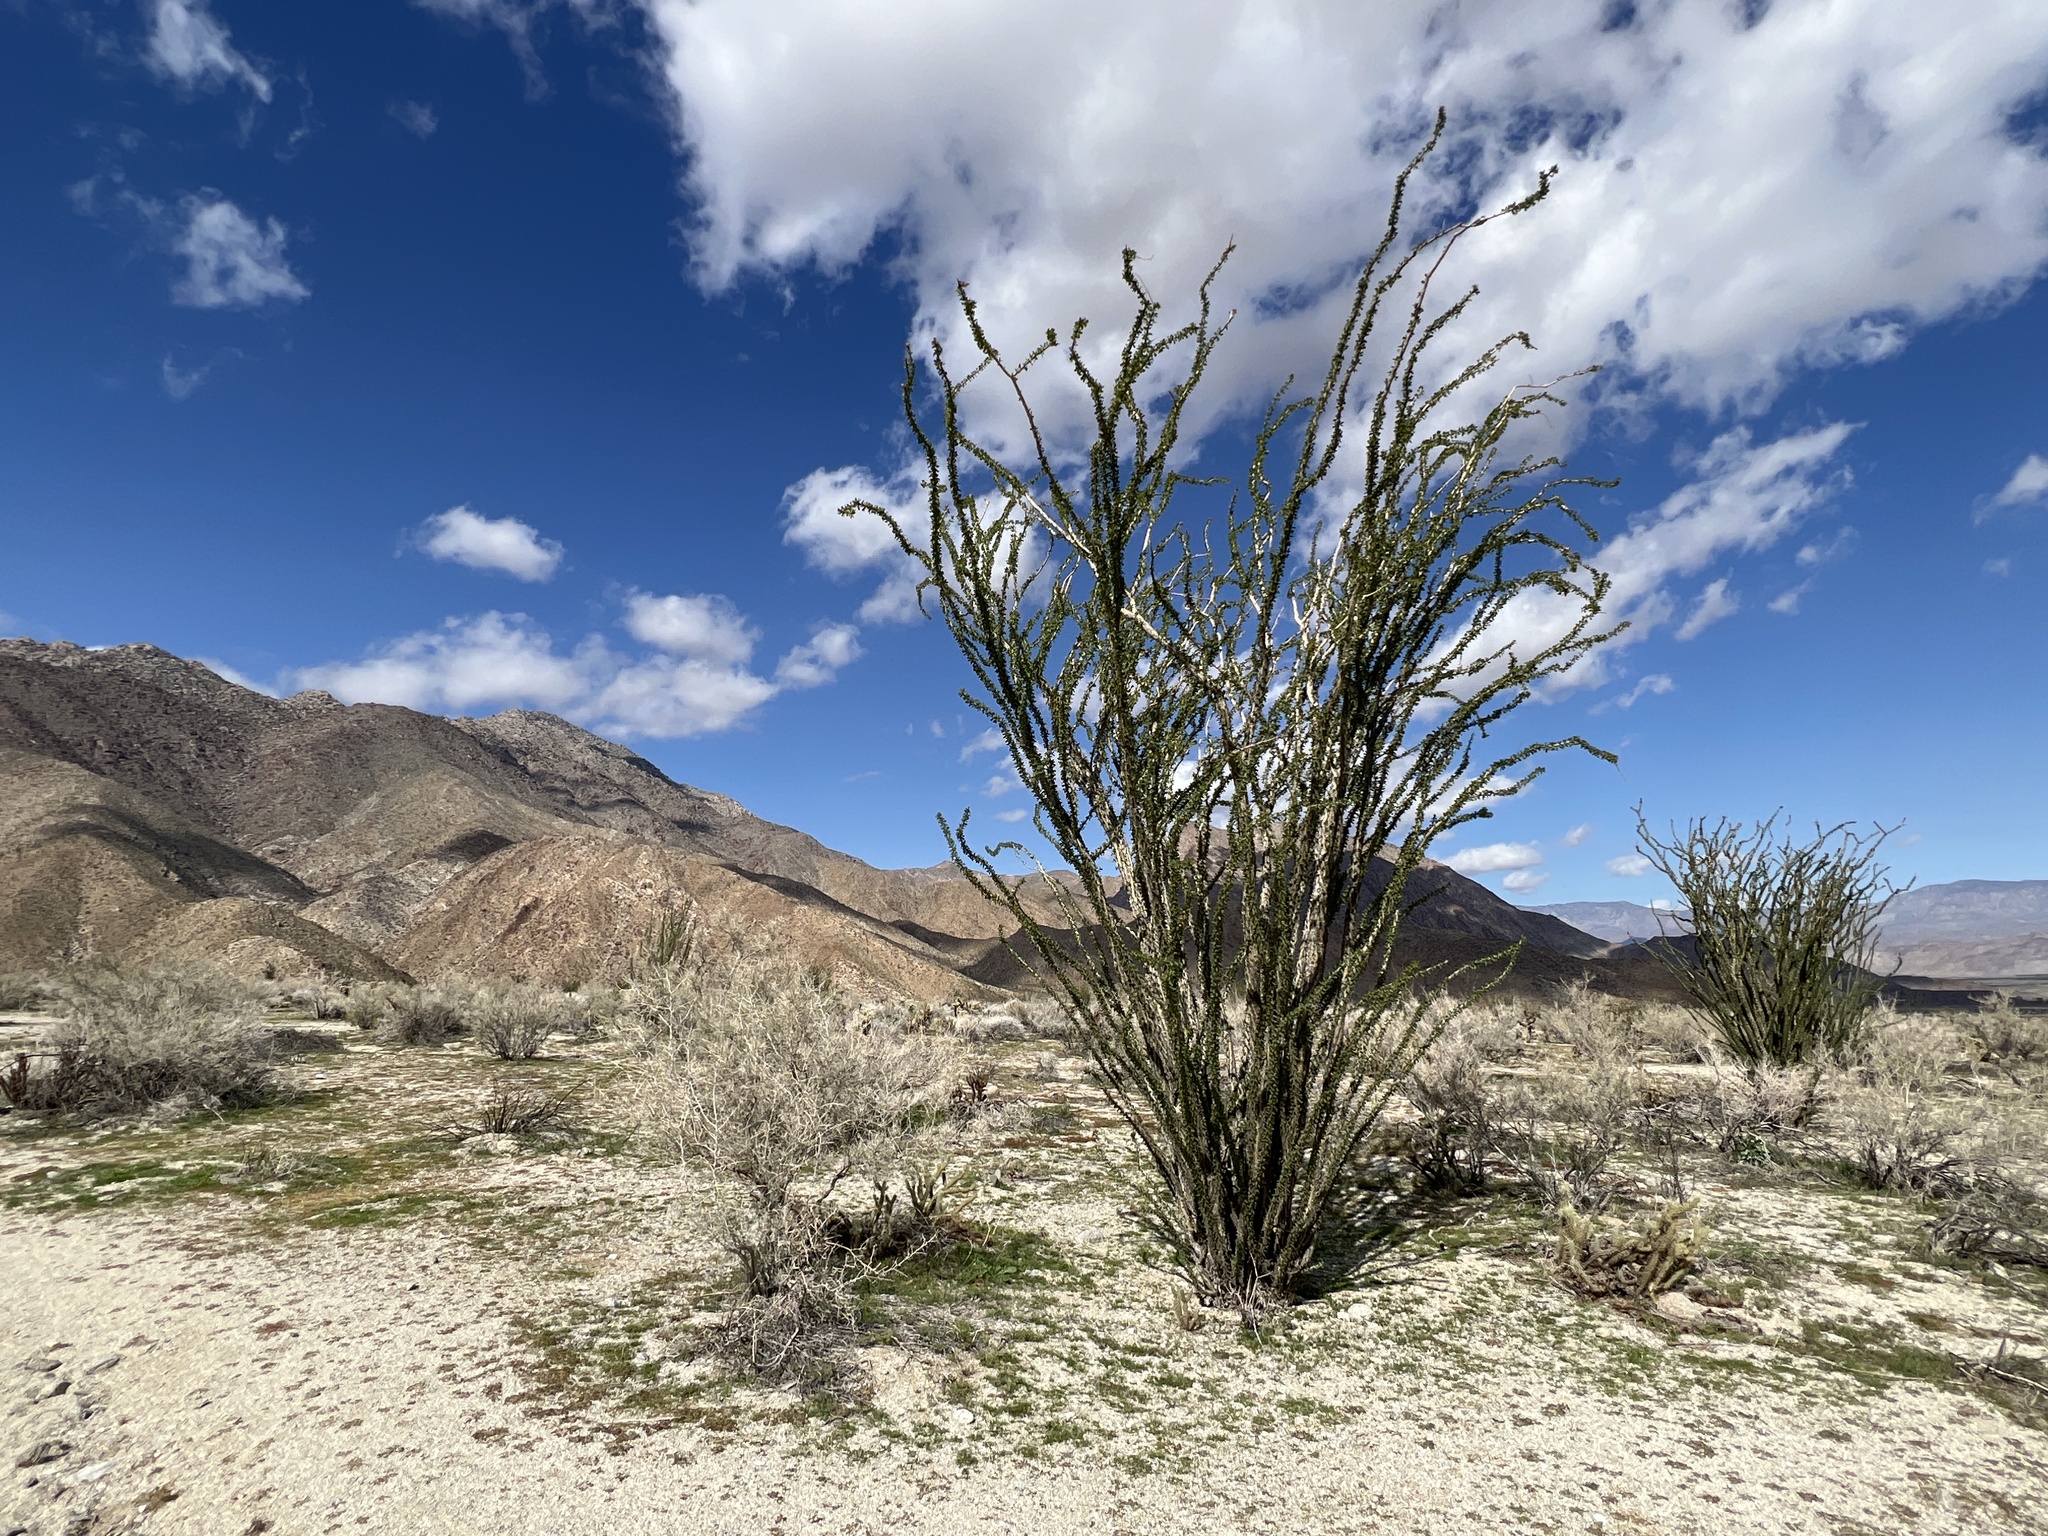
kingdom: Plantae
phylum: Tracheophyta
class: Magnoliopsida
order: Ericales
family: Fouquieriaceae
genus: Fouquieria
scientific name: Fouquieria splendens
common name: Vine-cactus
